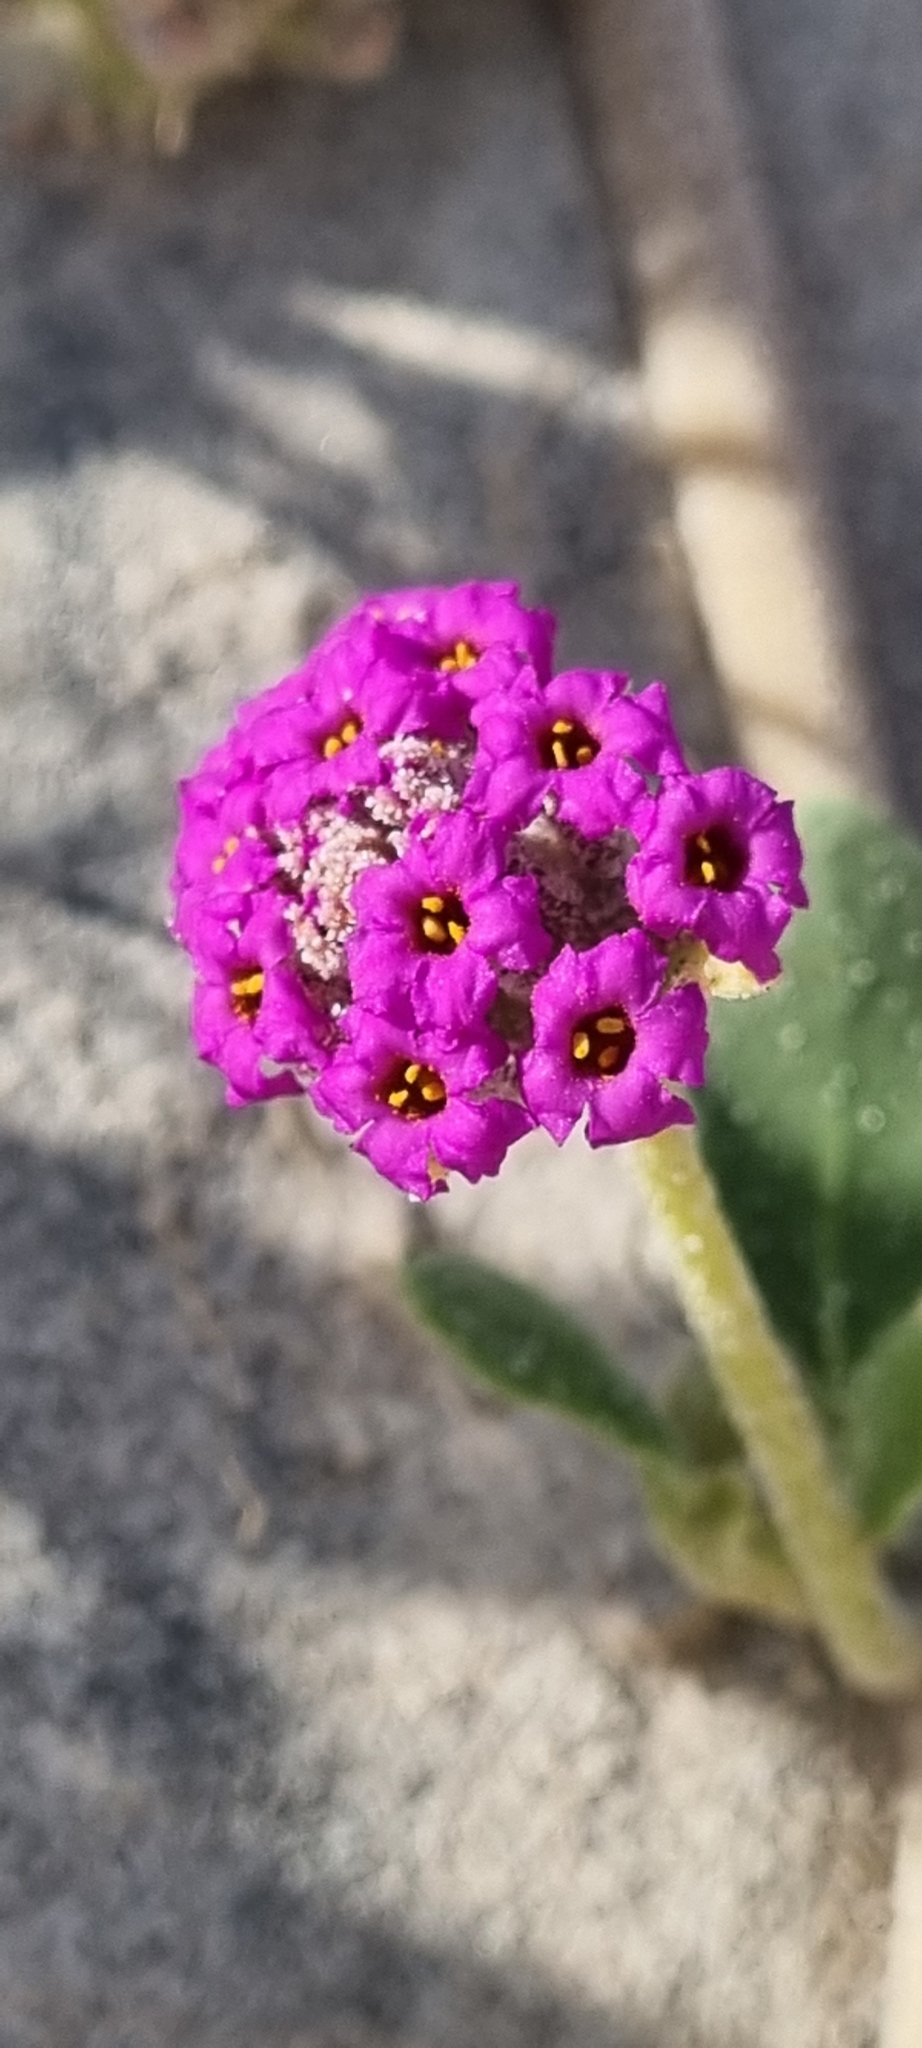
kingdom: Plantae
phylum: Tracheophyta
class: Magnoliopsida
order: Caryophyllales
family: Nyctaginaceae
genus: Abronia
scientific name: Abronia maritima
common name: Red sand-verbena
